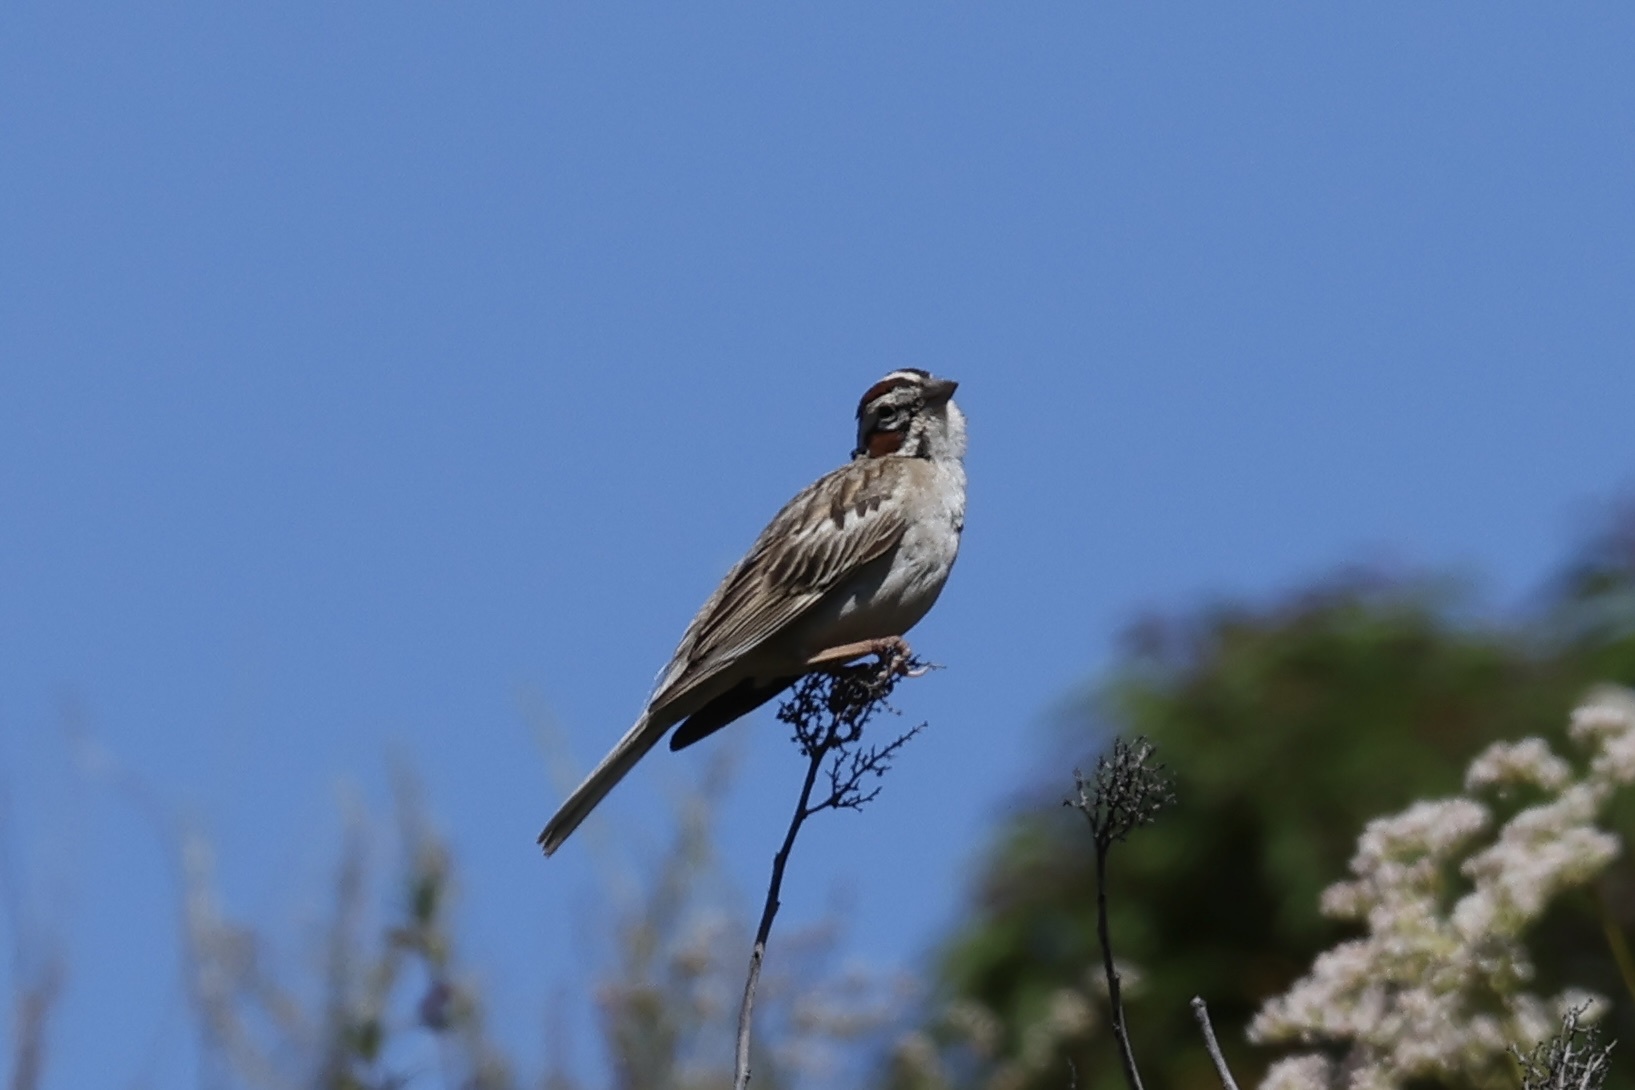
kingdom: Animalia
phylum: Chordata
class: Aves
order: Passeriformes
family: Passerellidae
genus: Chondestes
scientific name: Chondestes grammacus
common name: Lark sparrow
